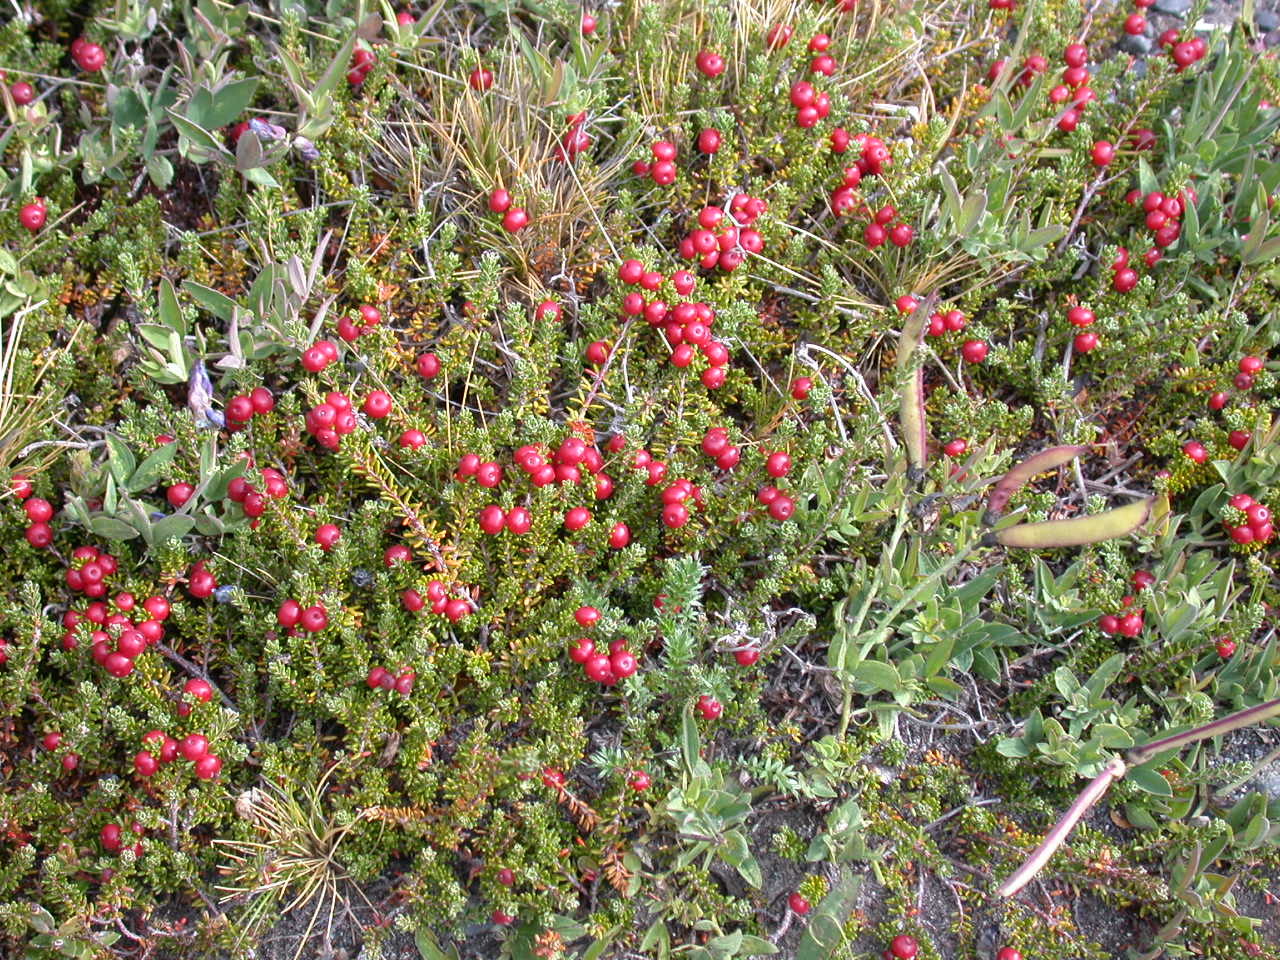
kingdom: Plantae
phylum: Tracheophyta
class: Magnoliopsida
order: Ericales
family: Ericaceae
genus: Empetrum
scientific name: Empetrum rubrum
